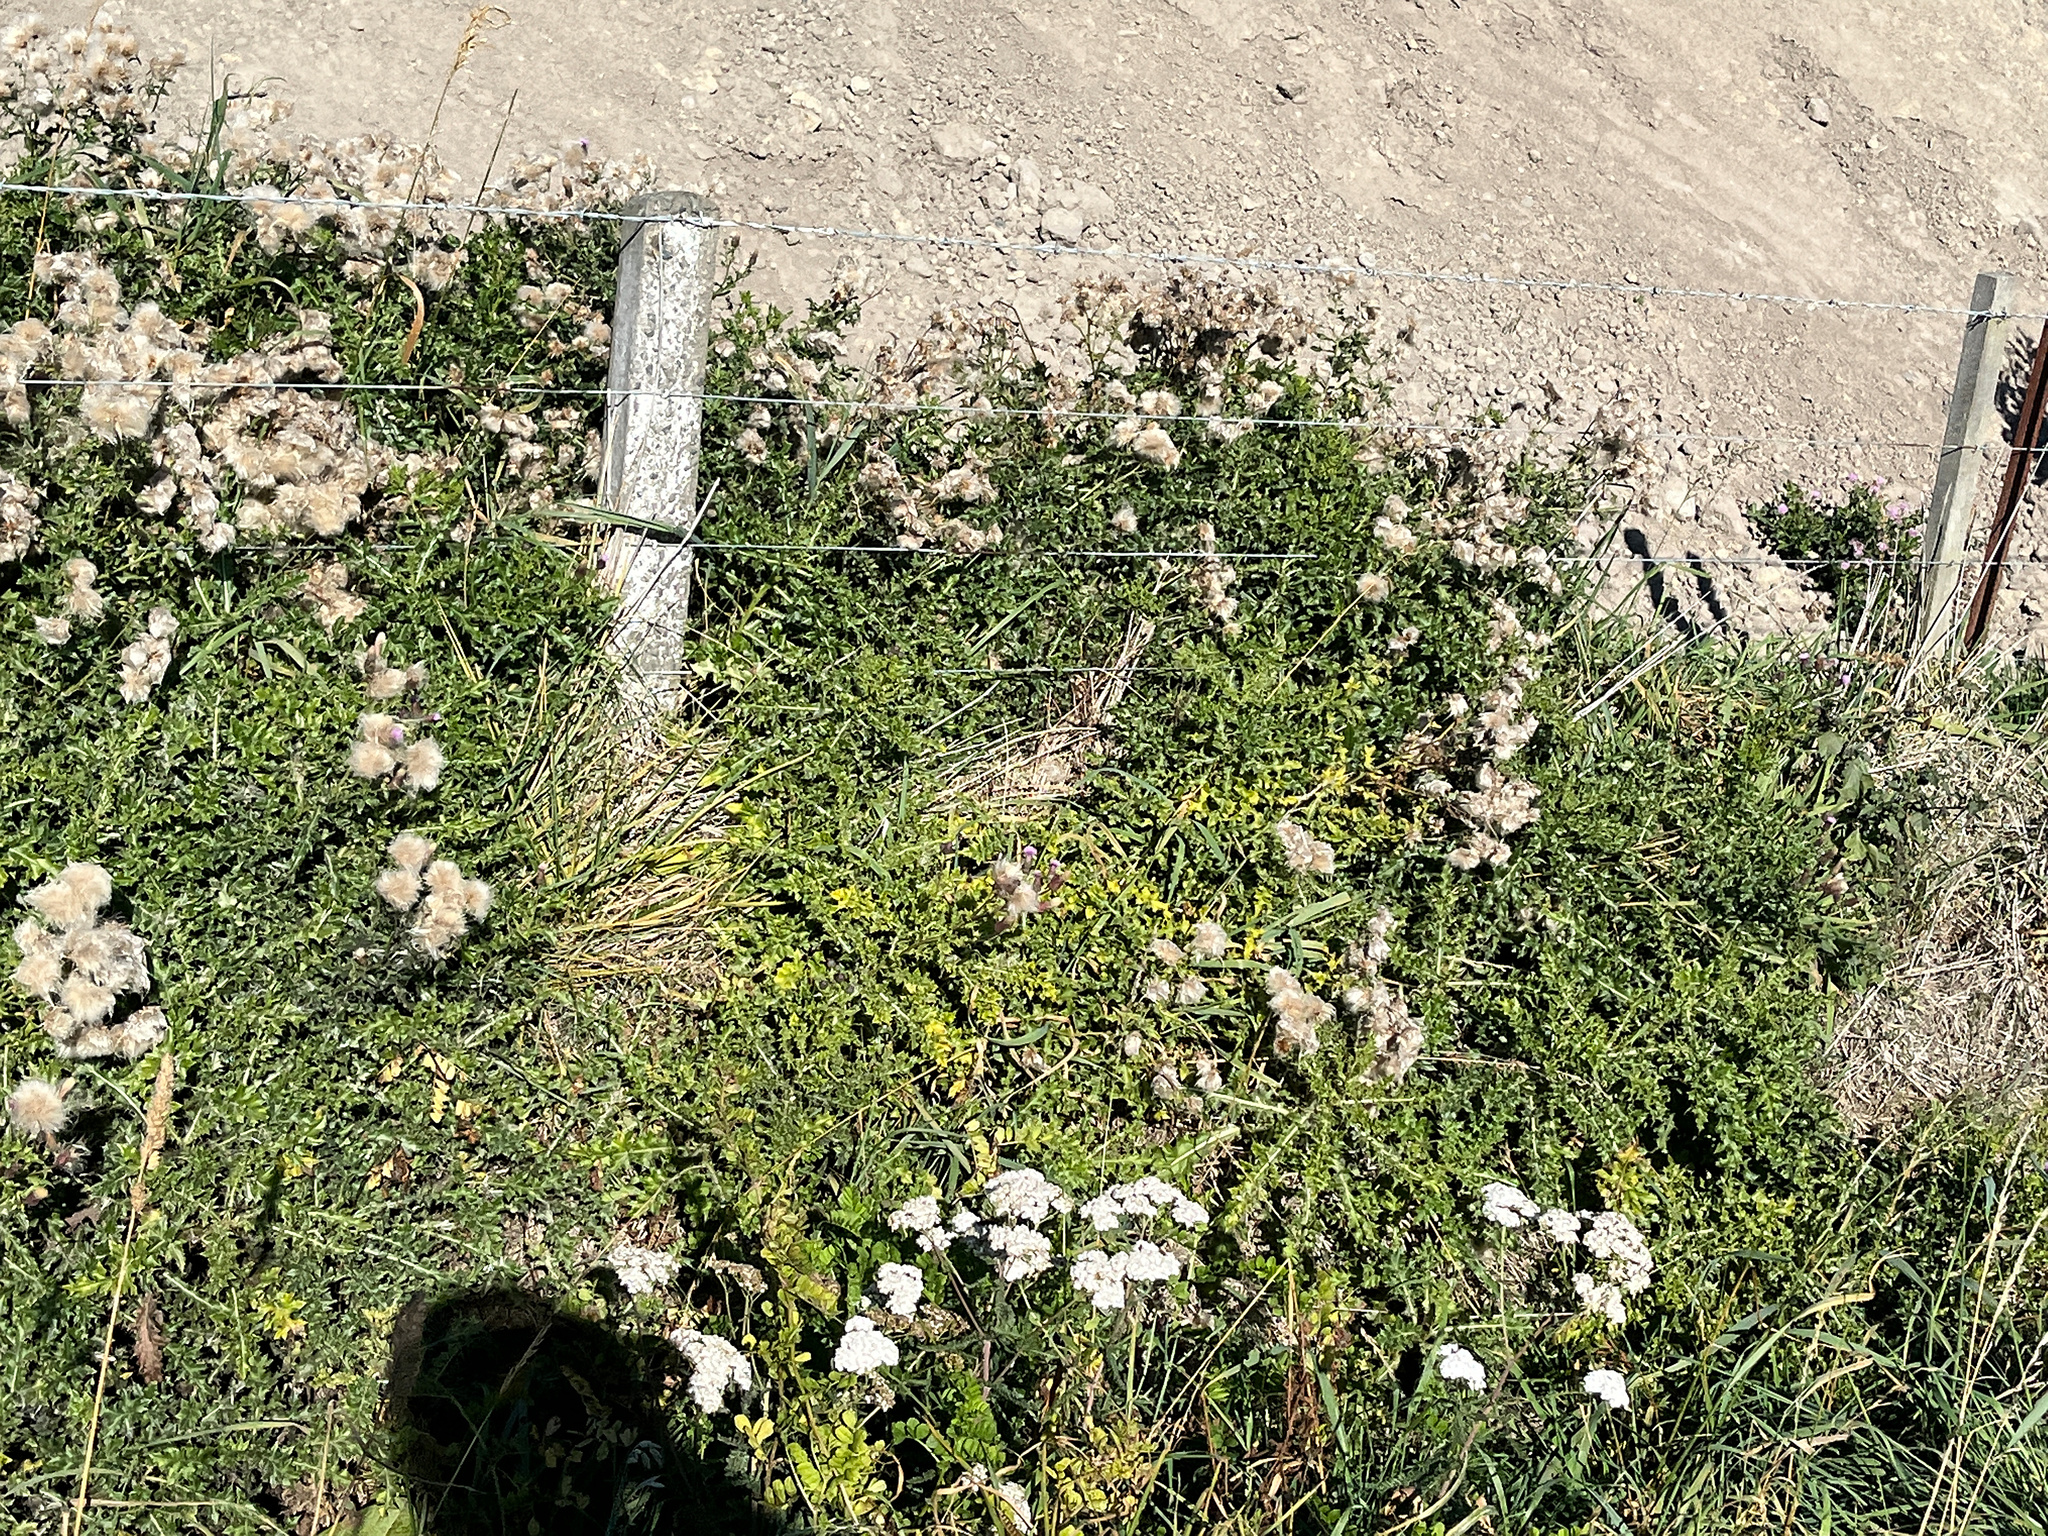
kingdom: Plantae
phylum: Tracheophyta
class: Magnoliopsida
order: Asterales
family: Asteraceae
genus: Cirsium
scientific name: Cirsium arvense
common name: Creeping thistle
